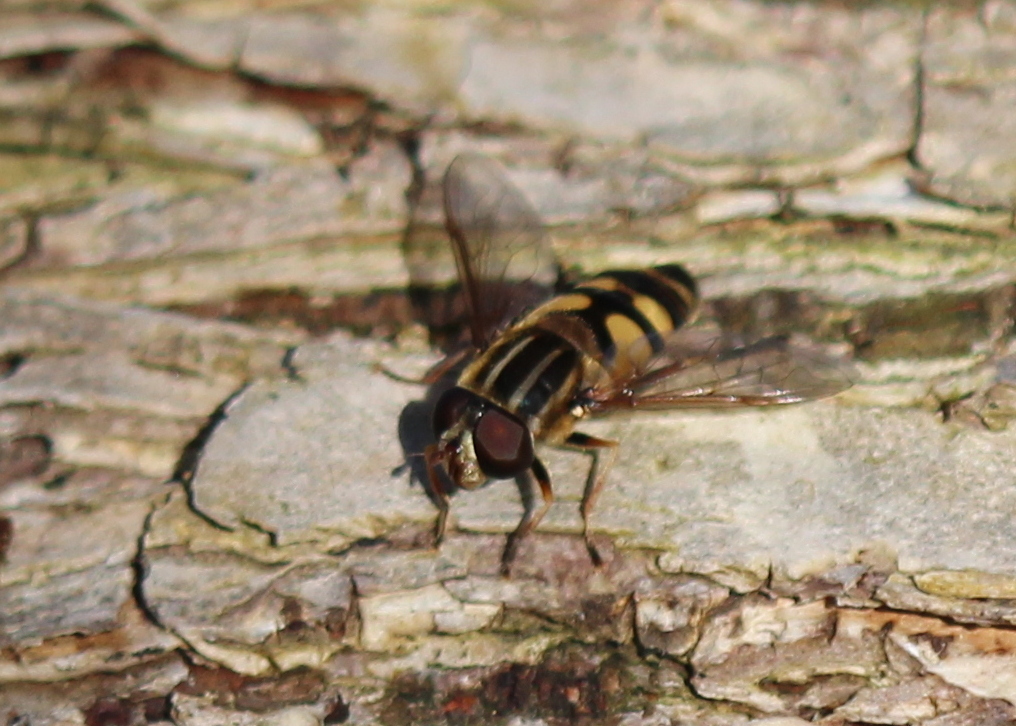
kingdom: Animalia
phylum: Arthropoda
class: Insecta
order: Diptera
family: Syrphidae
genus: Helophilus
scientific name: Helophilus fasciatus
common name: Narrow-headed marsh fly
